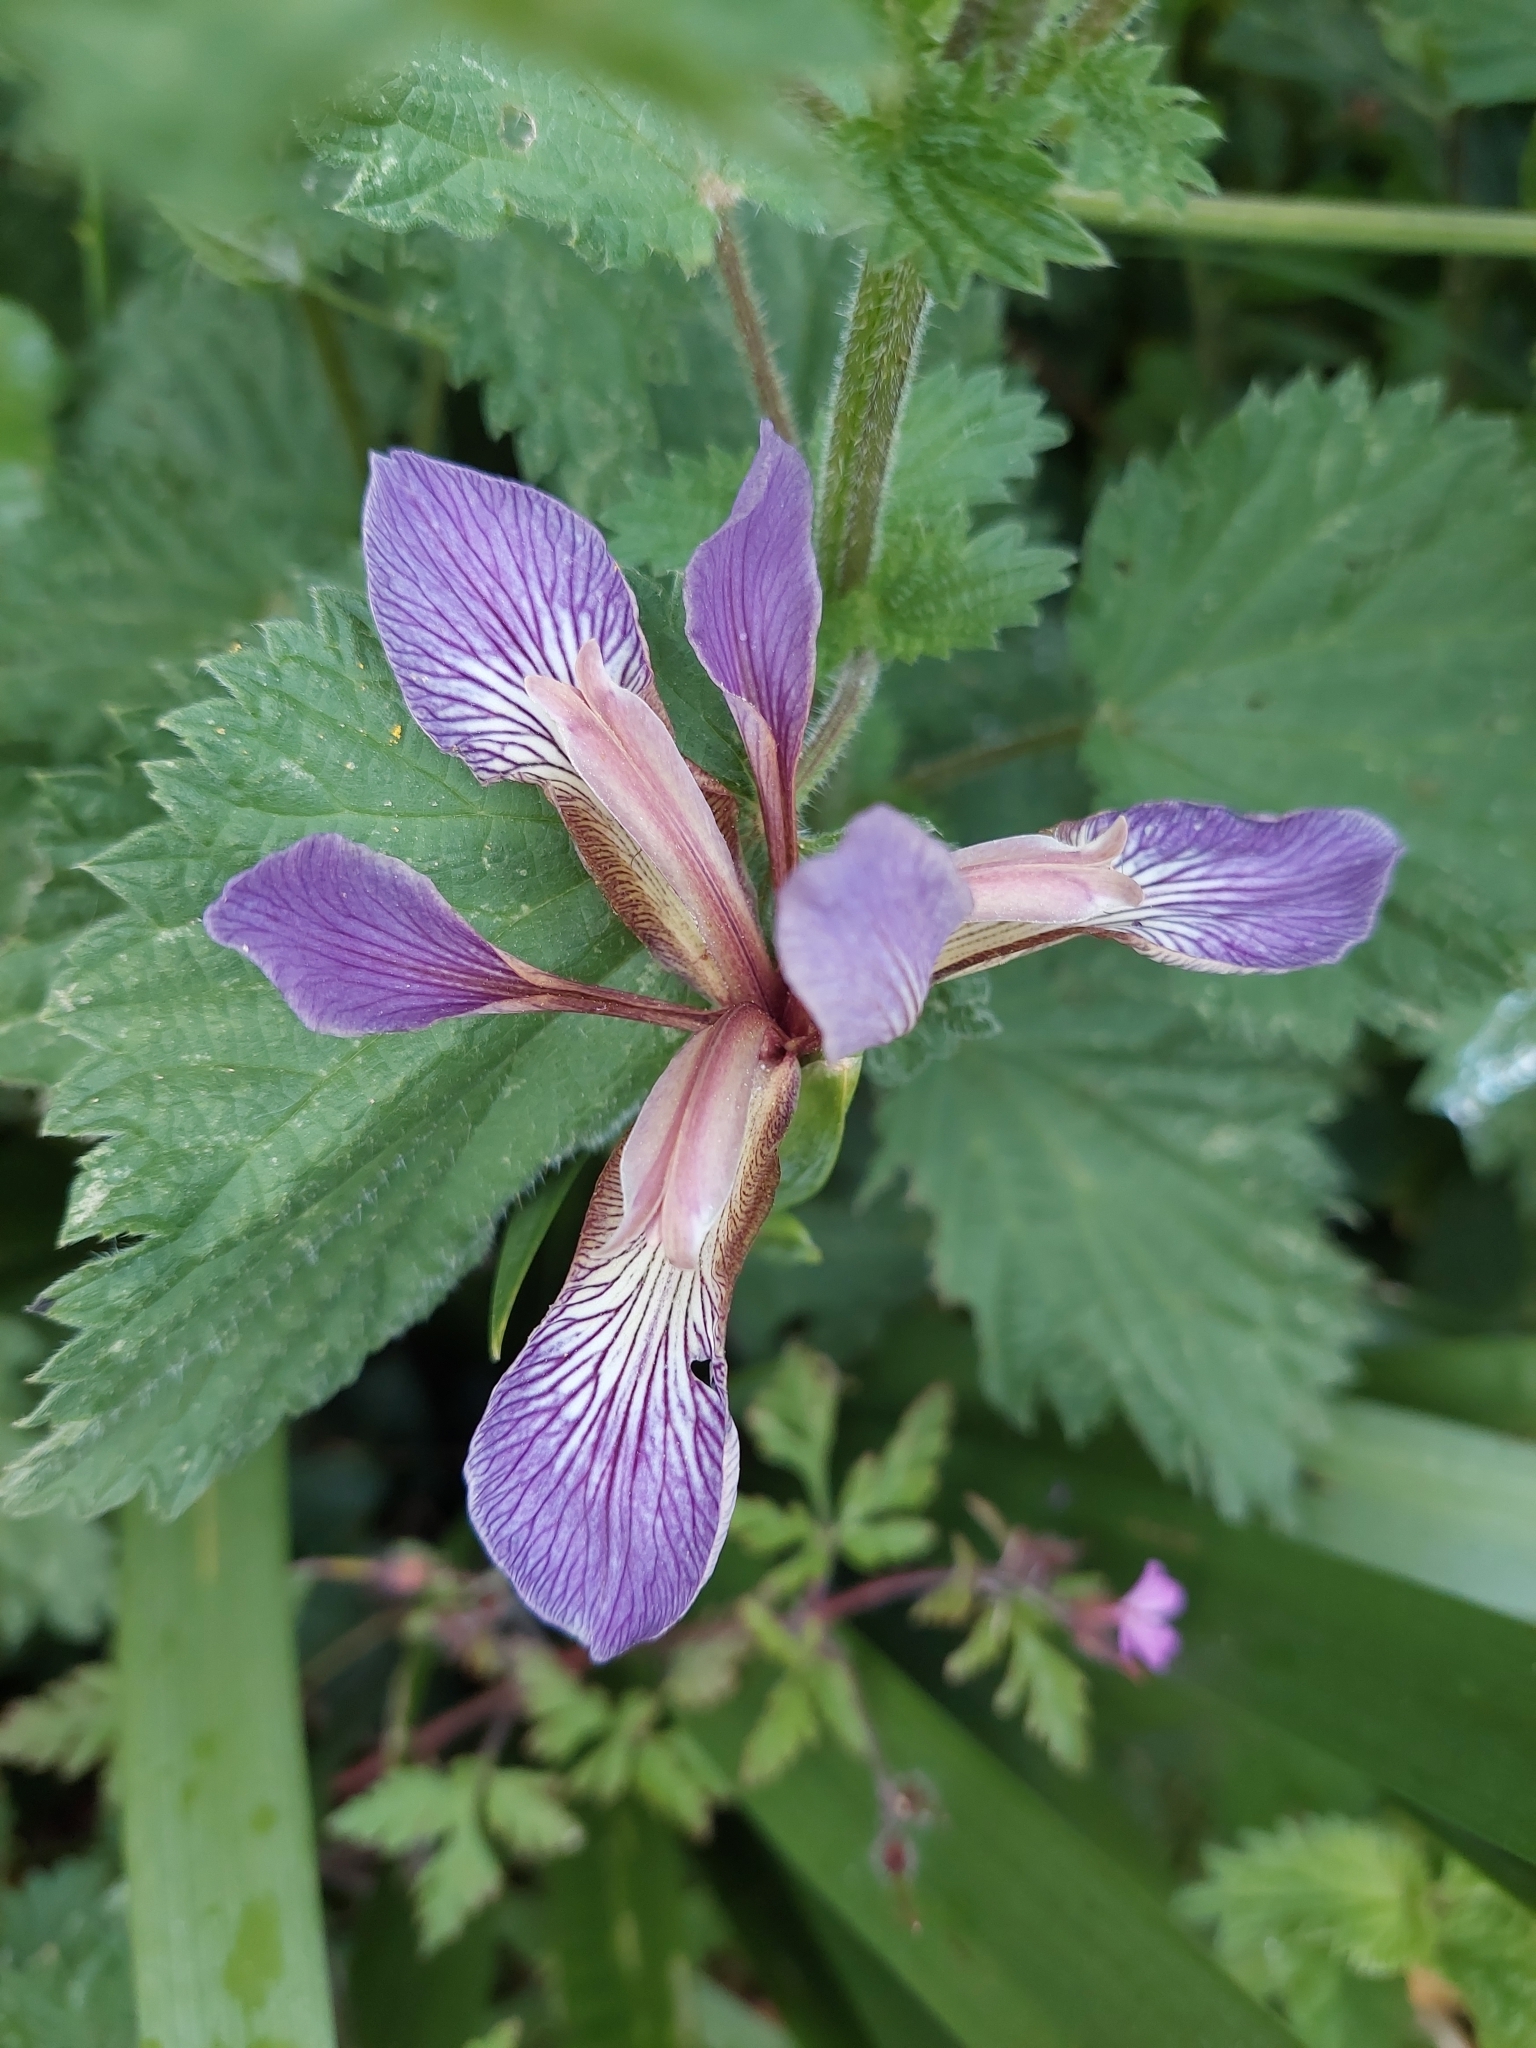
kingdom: Plantae
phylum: Tracheophyta
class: Liliopsida
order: Asparagales
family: Iridaceae
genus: Iris
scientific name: Iris foetidissima
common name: Stinking iris
